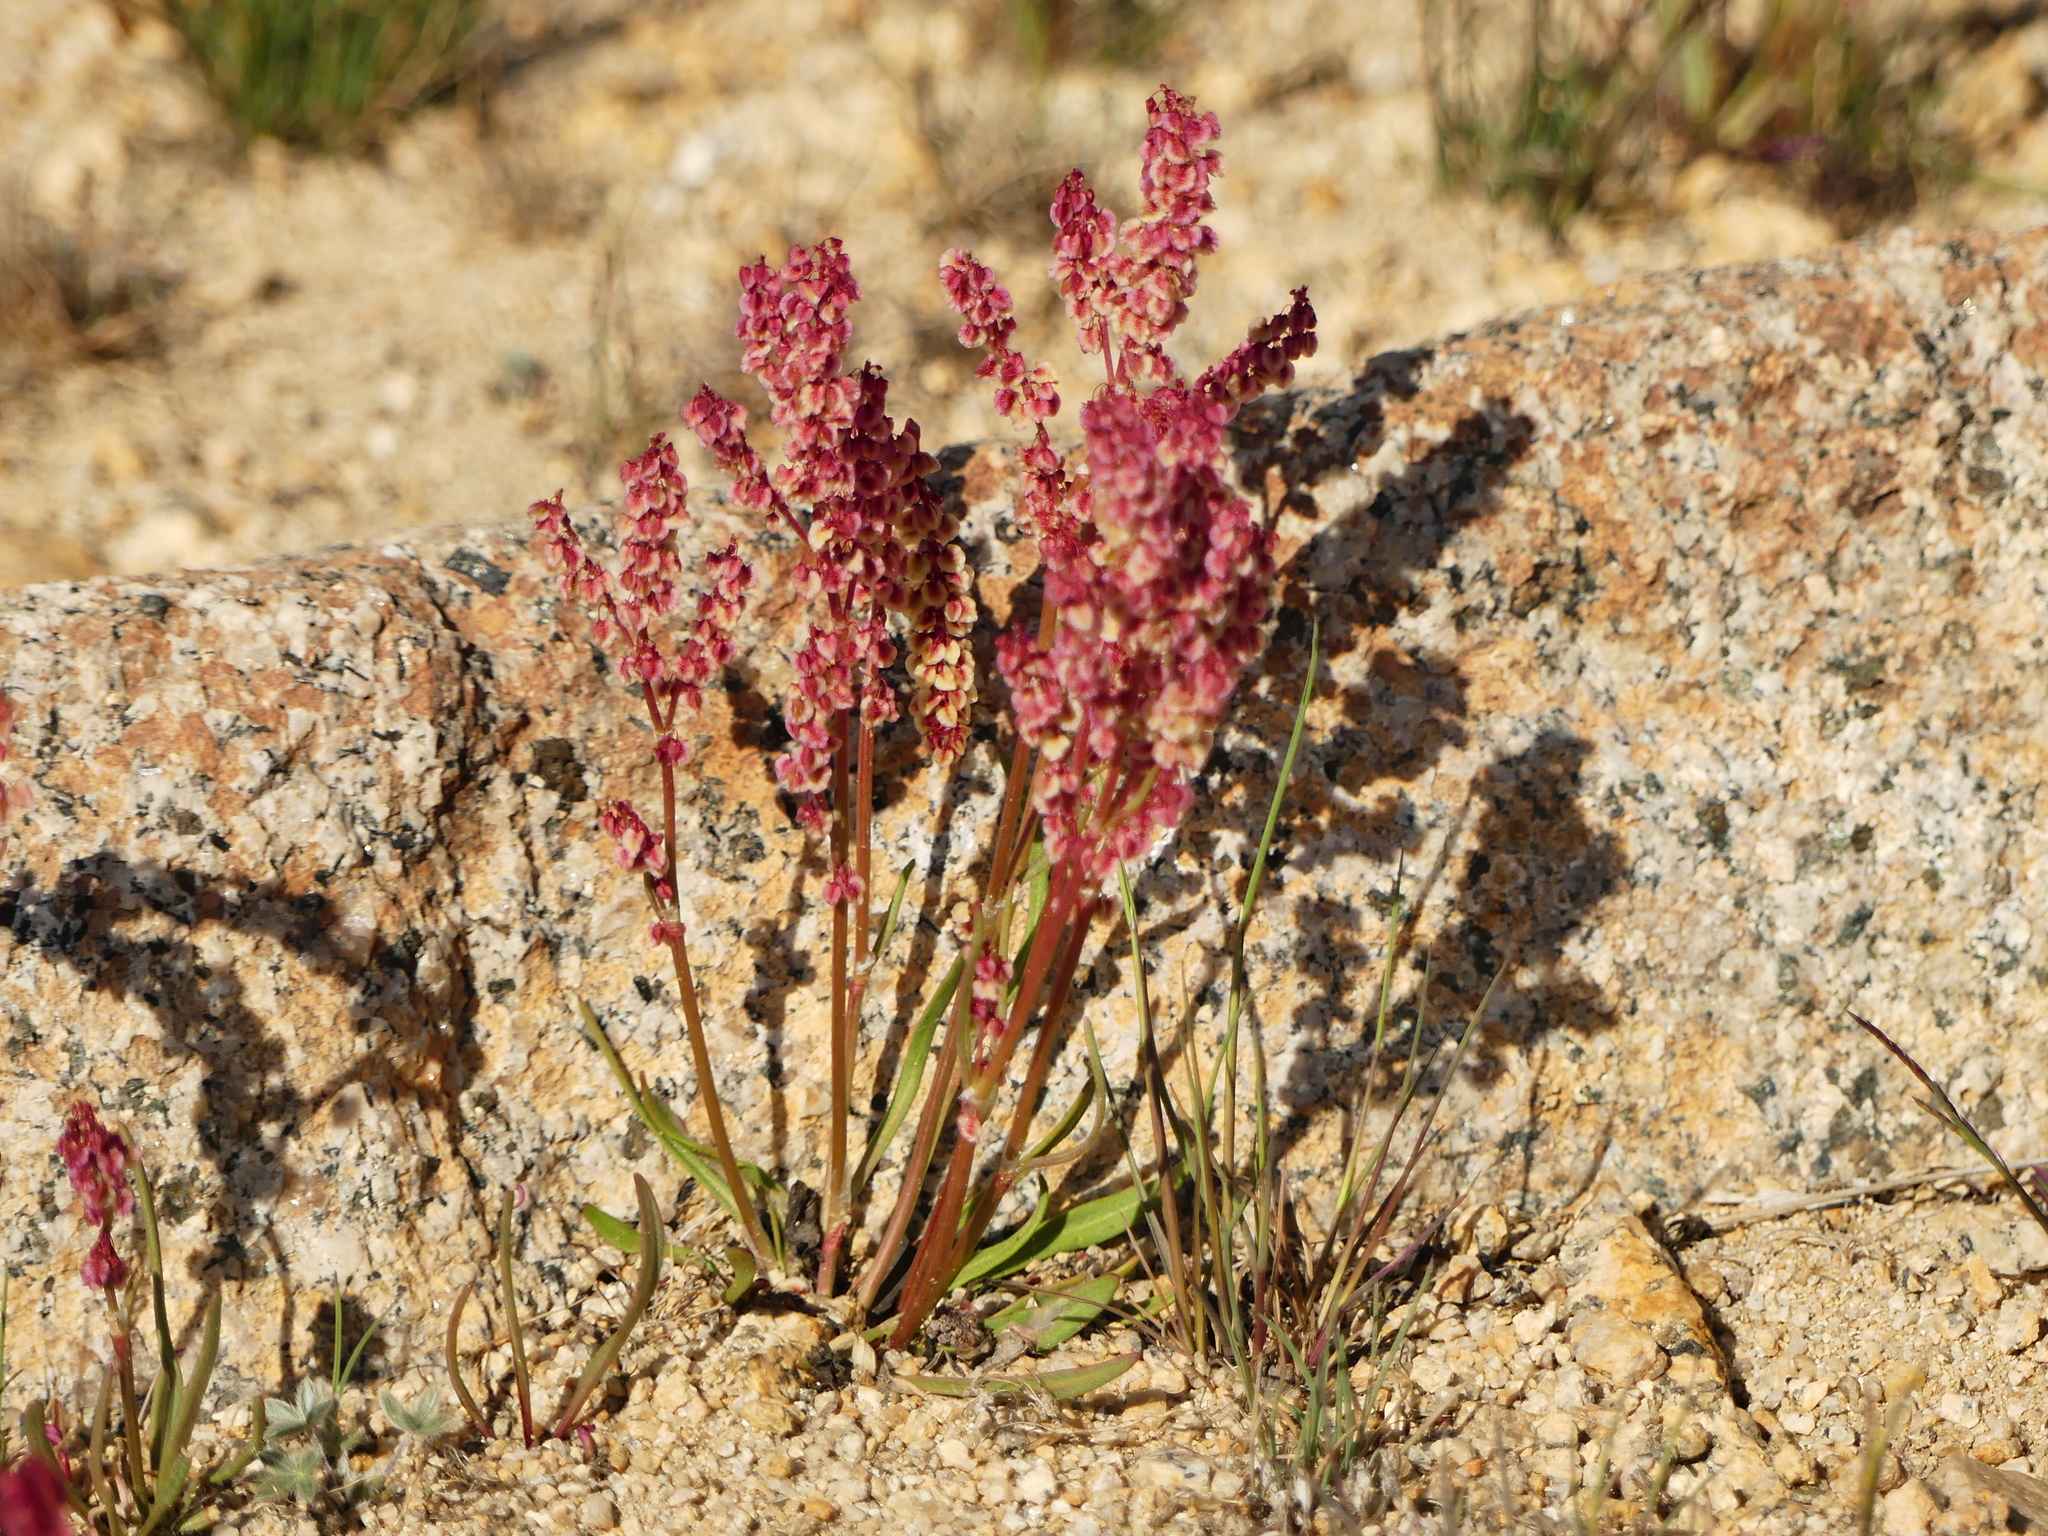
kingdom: Plantae
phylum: Tracheophyta
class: Magnoliopsida
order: Caryophyllales
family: Polygonaceae
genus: Rumex
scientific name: Rumex paucifolius
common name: Alpine sheep sorrel
